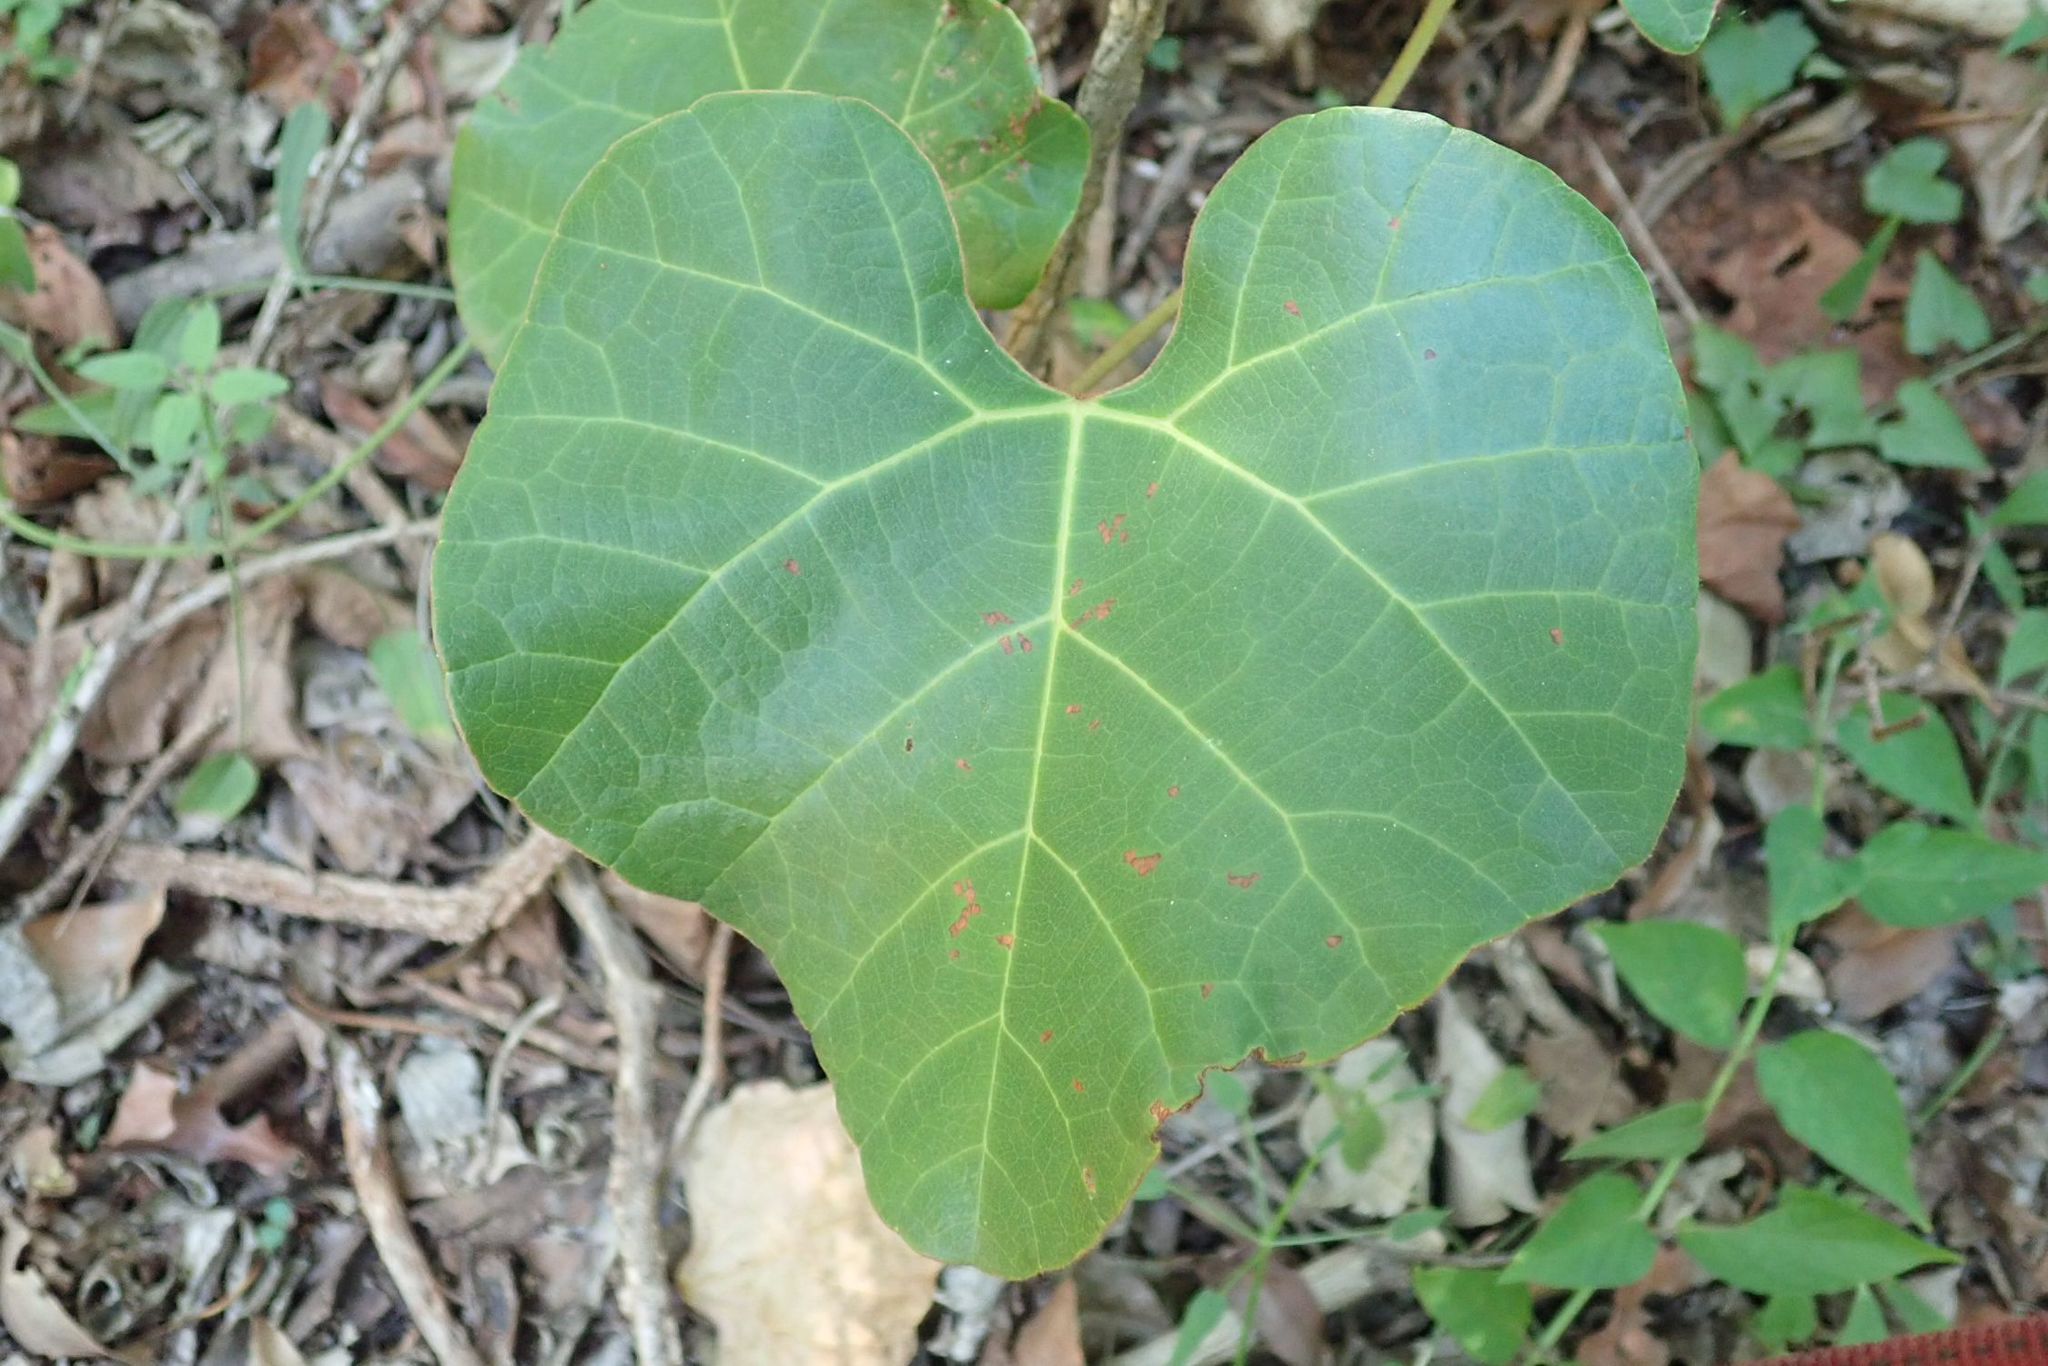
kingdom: Plantae
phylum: Tracheophyta
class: Magnoliopsida
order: Vitales
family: Vitaceae
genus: Rhoicissus
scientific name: Rhoicissus tomentosa
